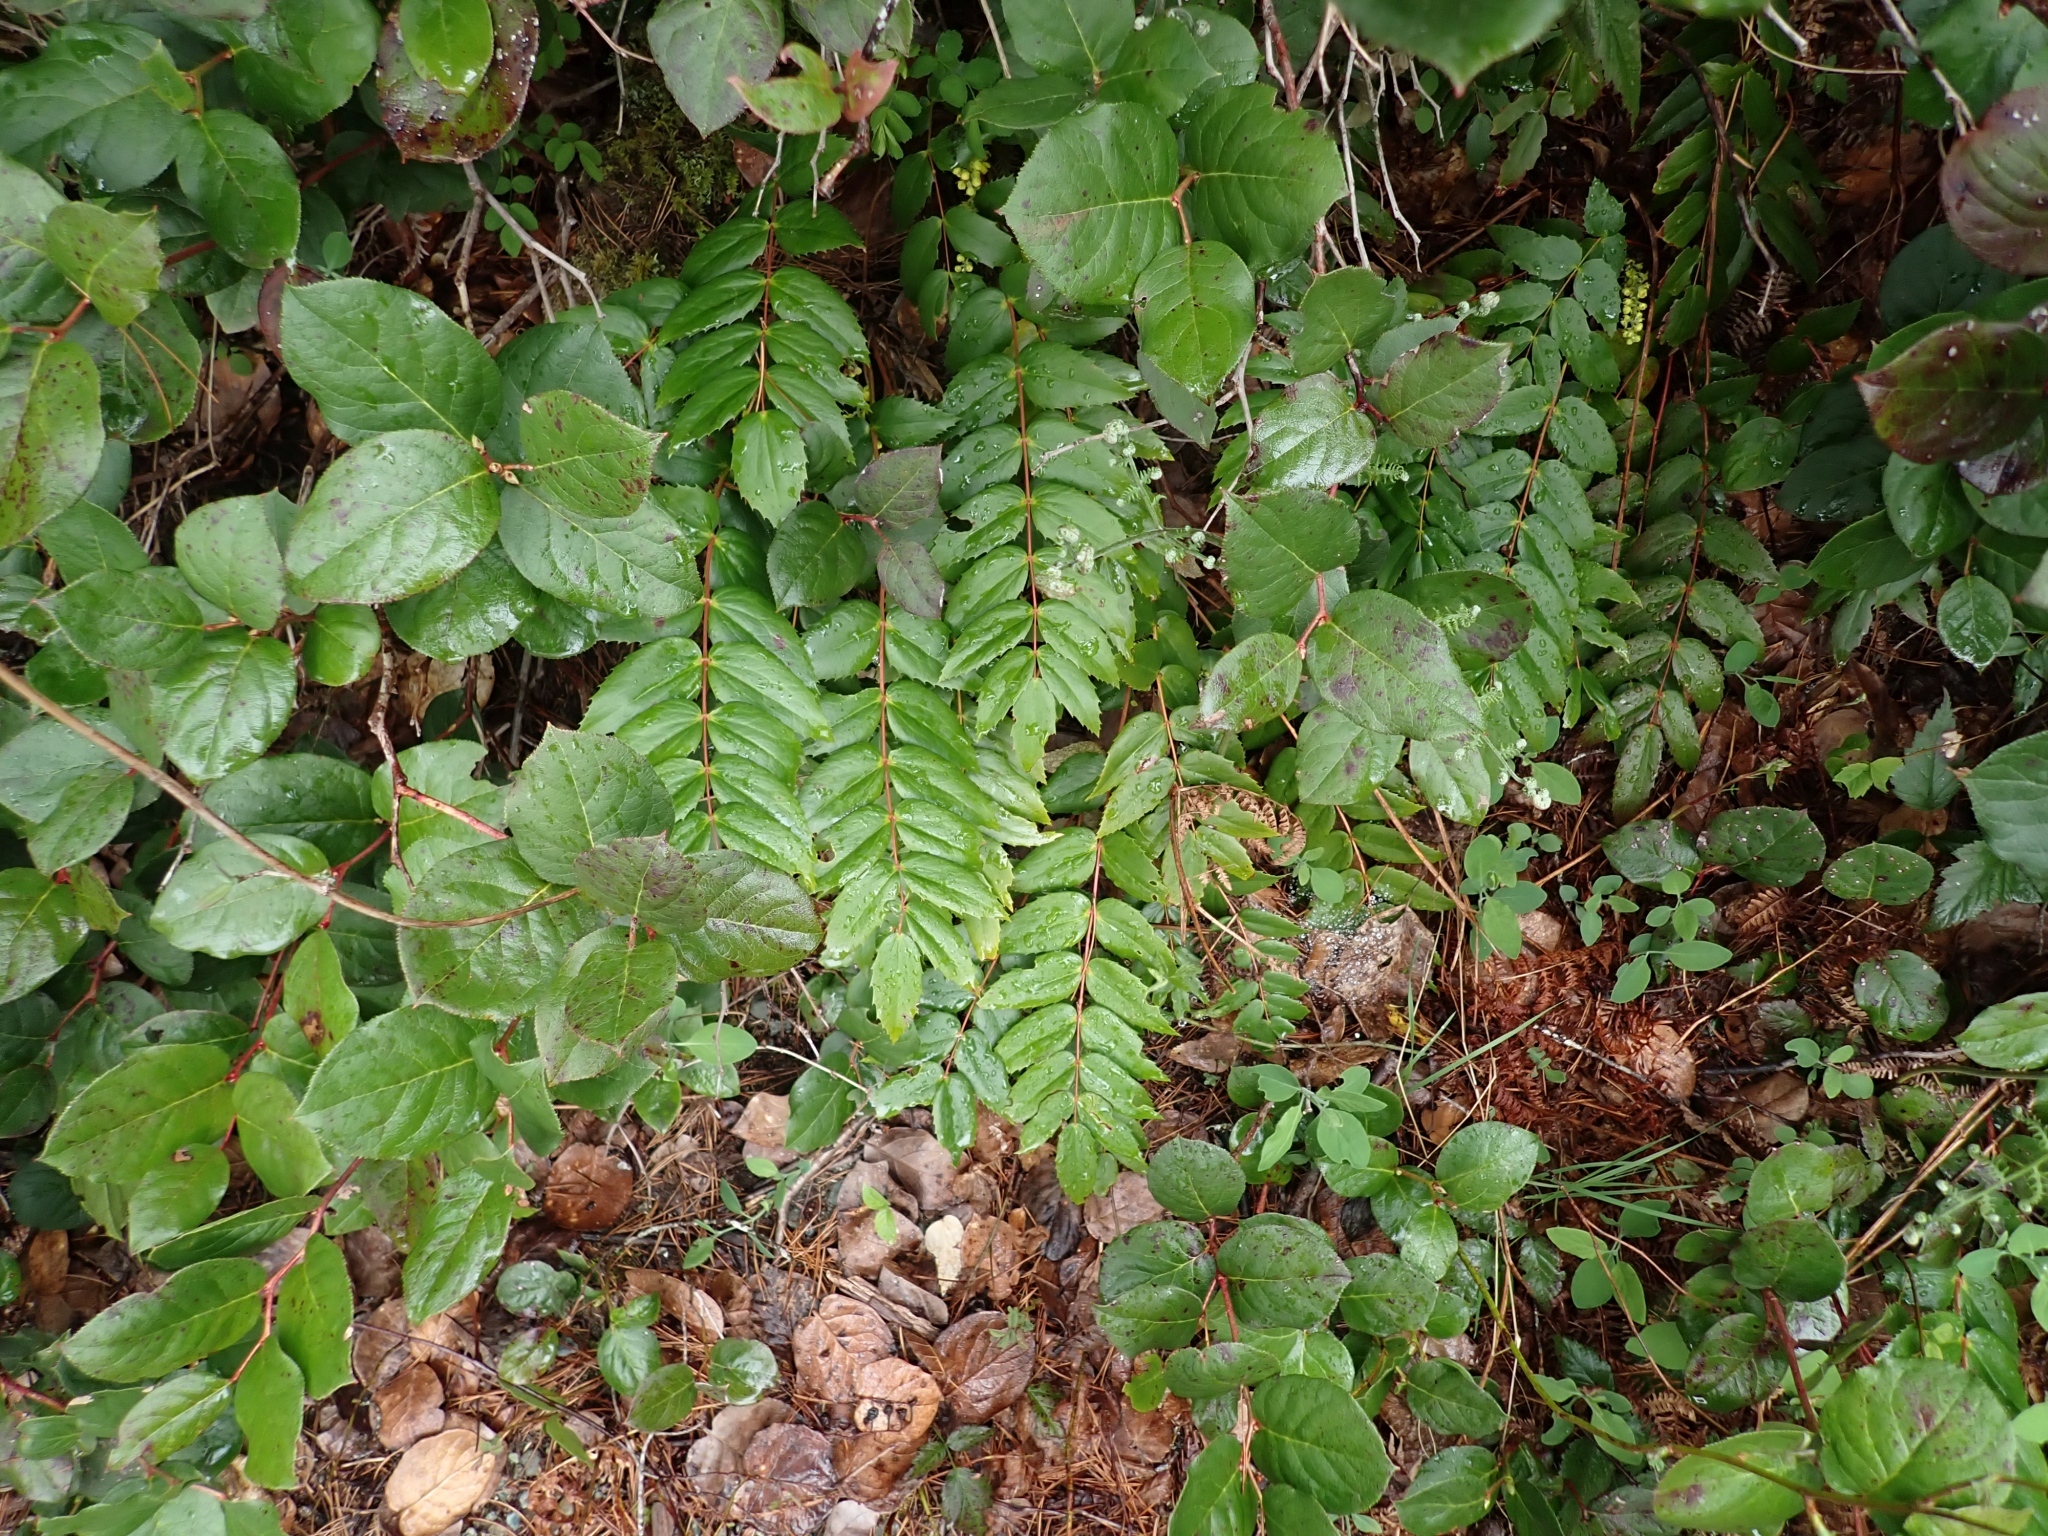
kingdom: Plantae
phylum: Tracheophyta
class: Magnoliopsida
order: Ranunculales
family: Berberidaceae
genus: Mahonia
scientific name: Mahonia nervosa
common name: Cascade oregon-grape
